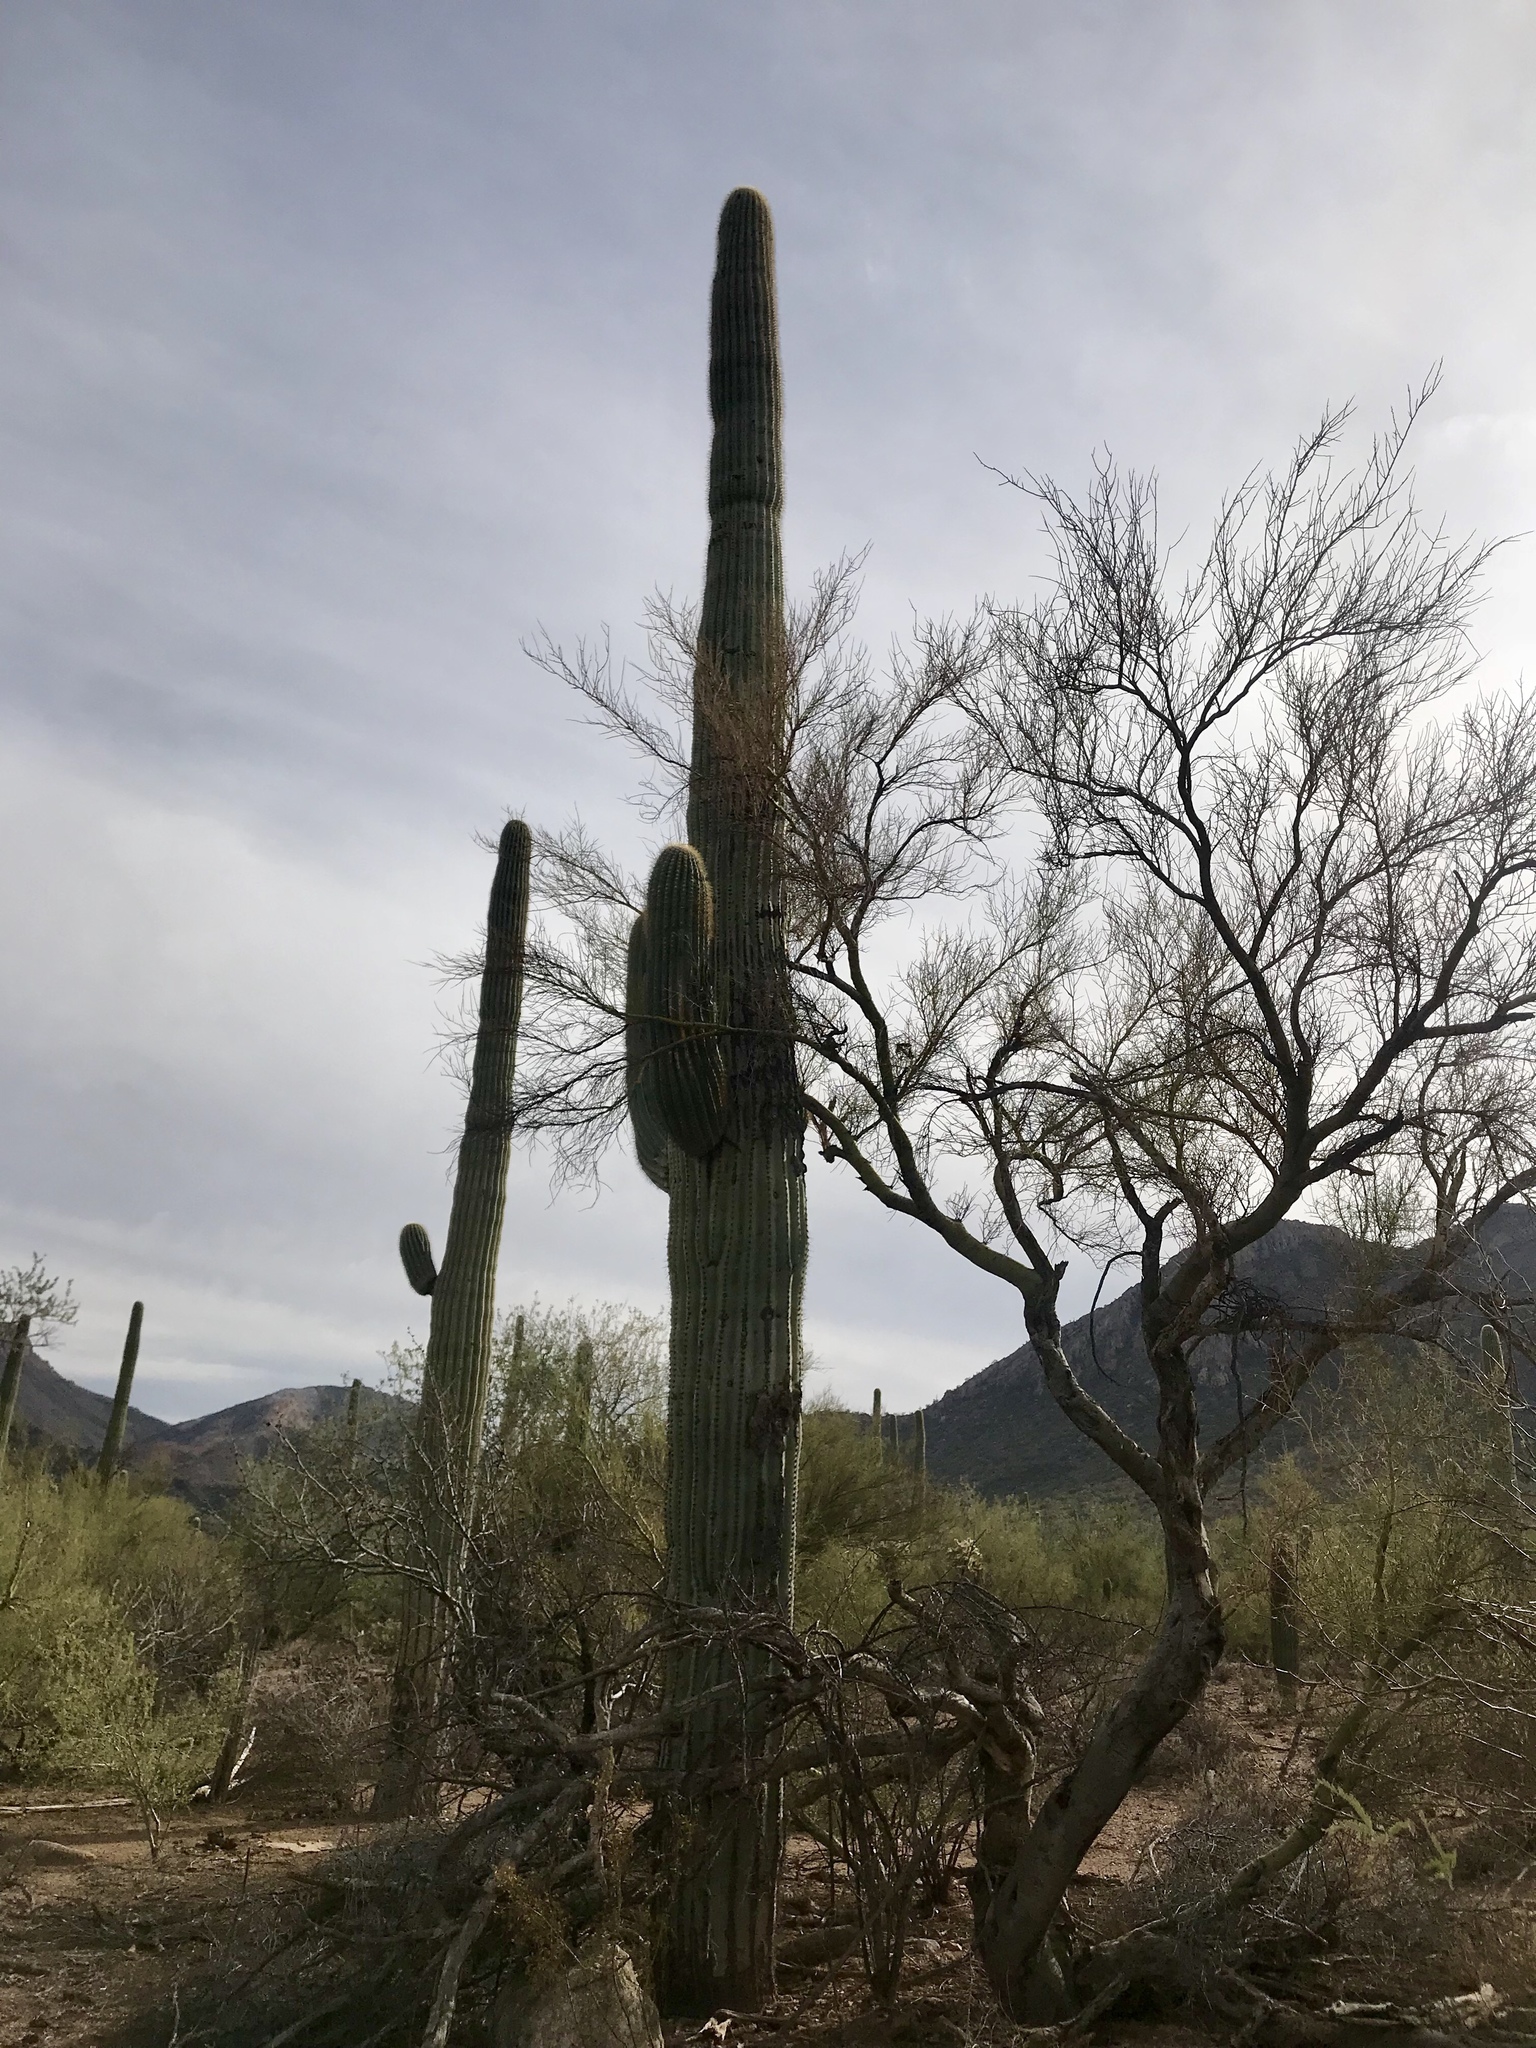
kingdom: Plantae
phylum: Tracheophyta
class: Magnoliopsida
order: Caryophyllales
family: Cactaceae
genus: Carnegiea
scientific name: Carnegiea gigantea
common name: Saguaro
